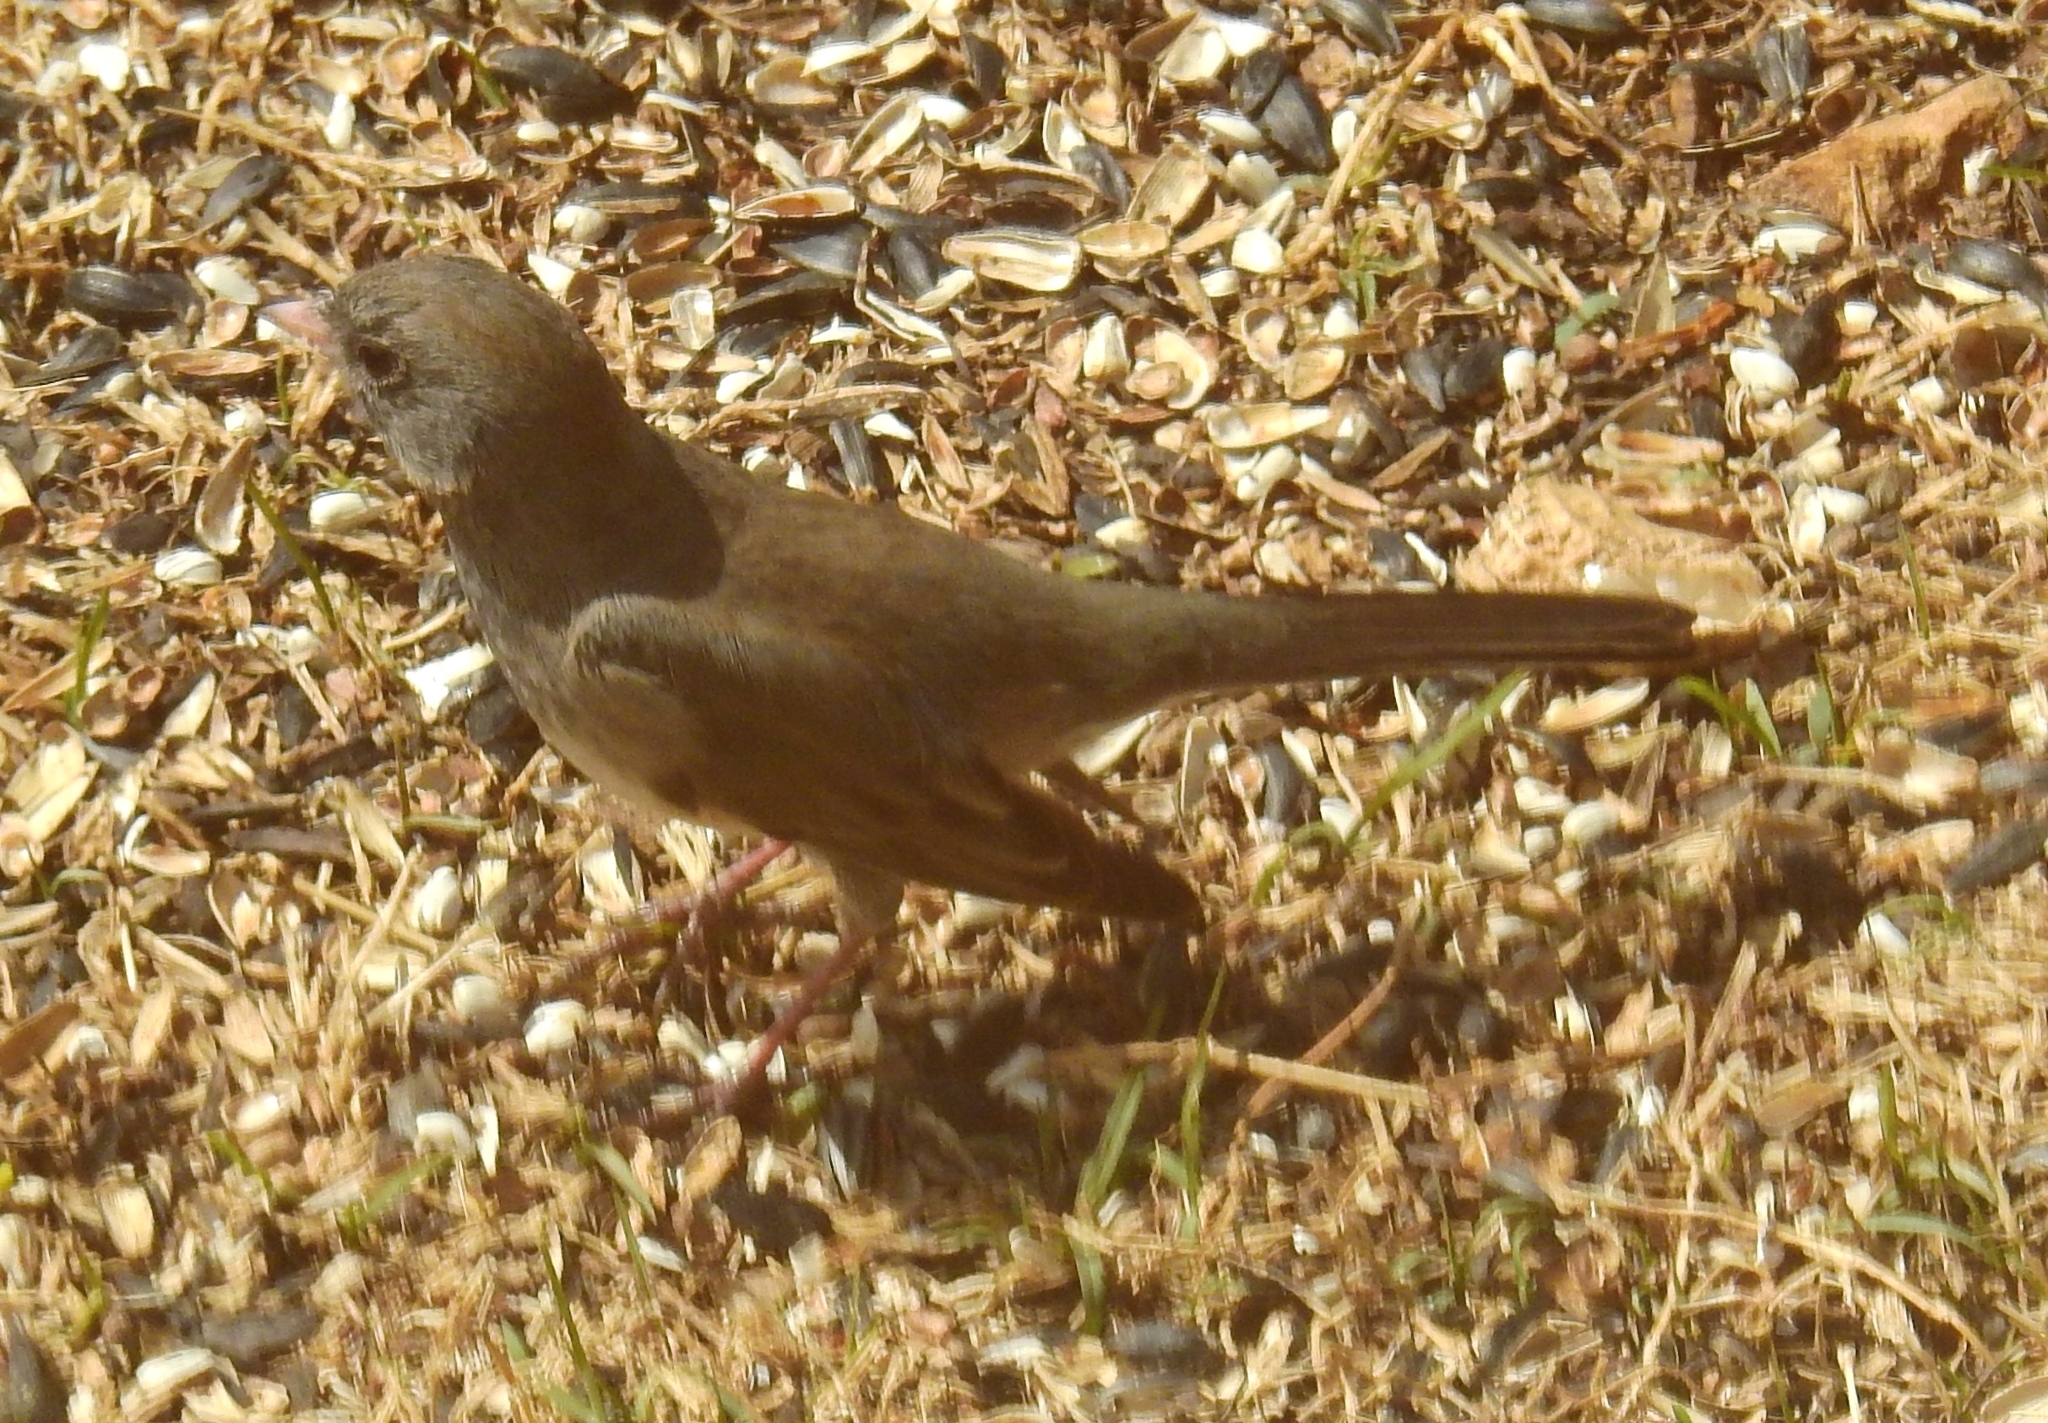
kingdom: Animalia
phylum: Chordata
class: Aves
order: Passeriformes
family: Passerellidae
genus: Junco
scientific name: Junco hyemalis
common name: Dark-eyed junco
